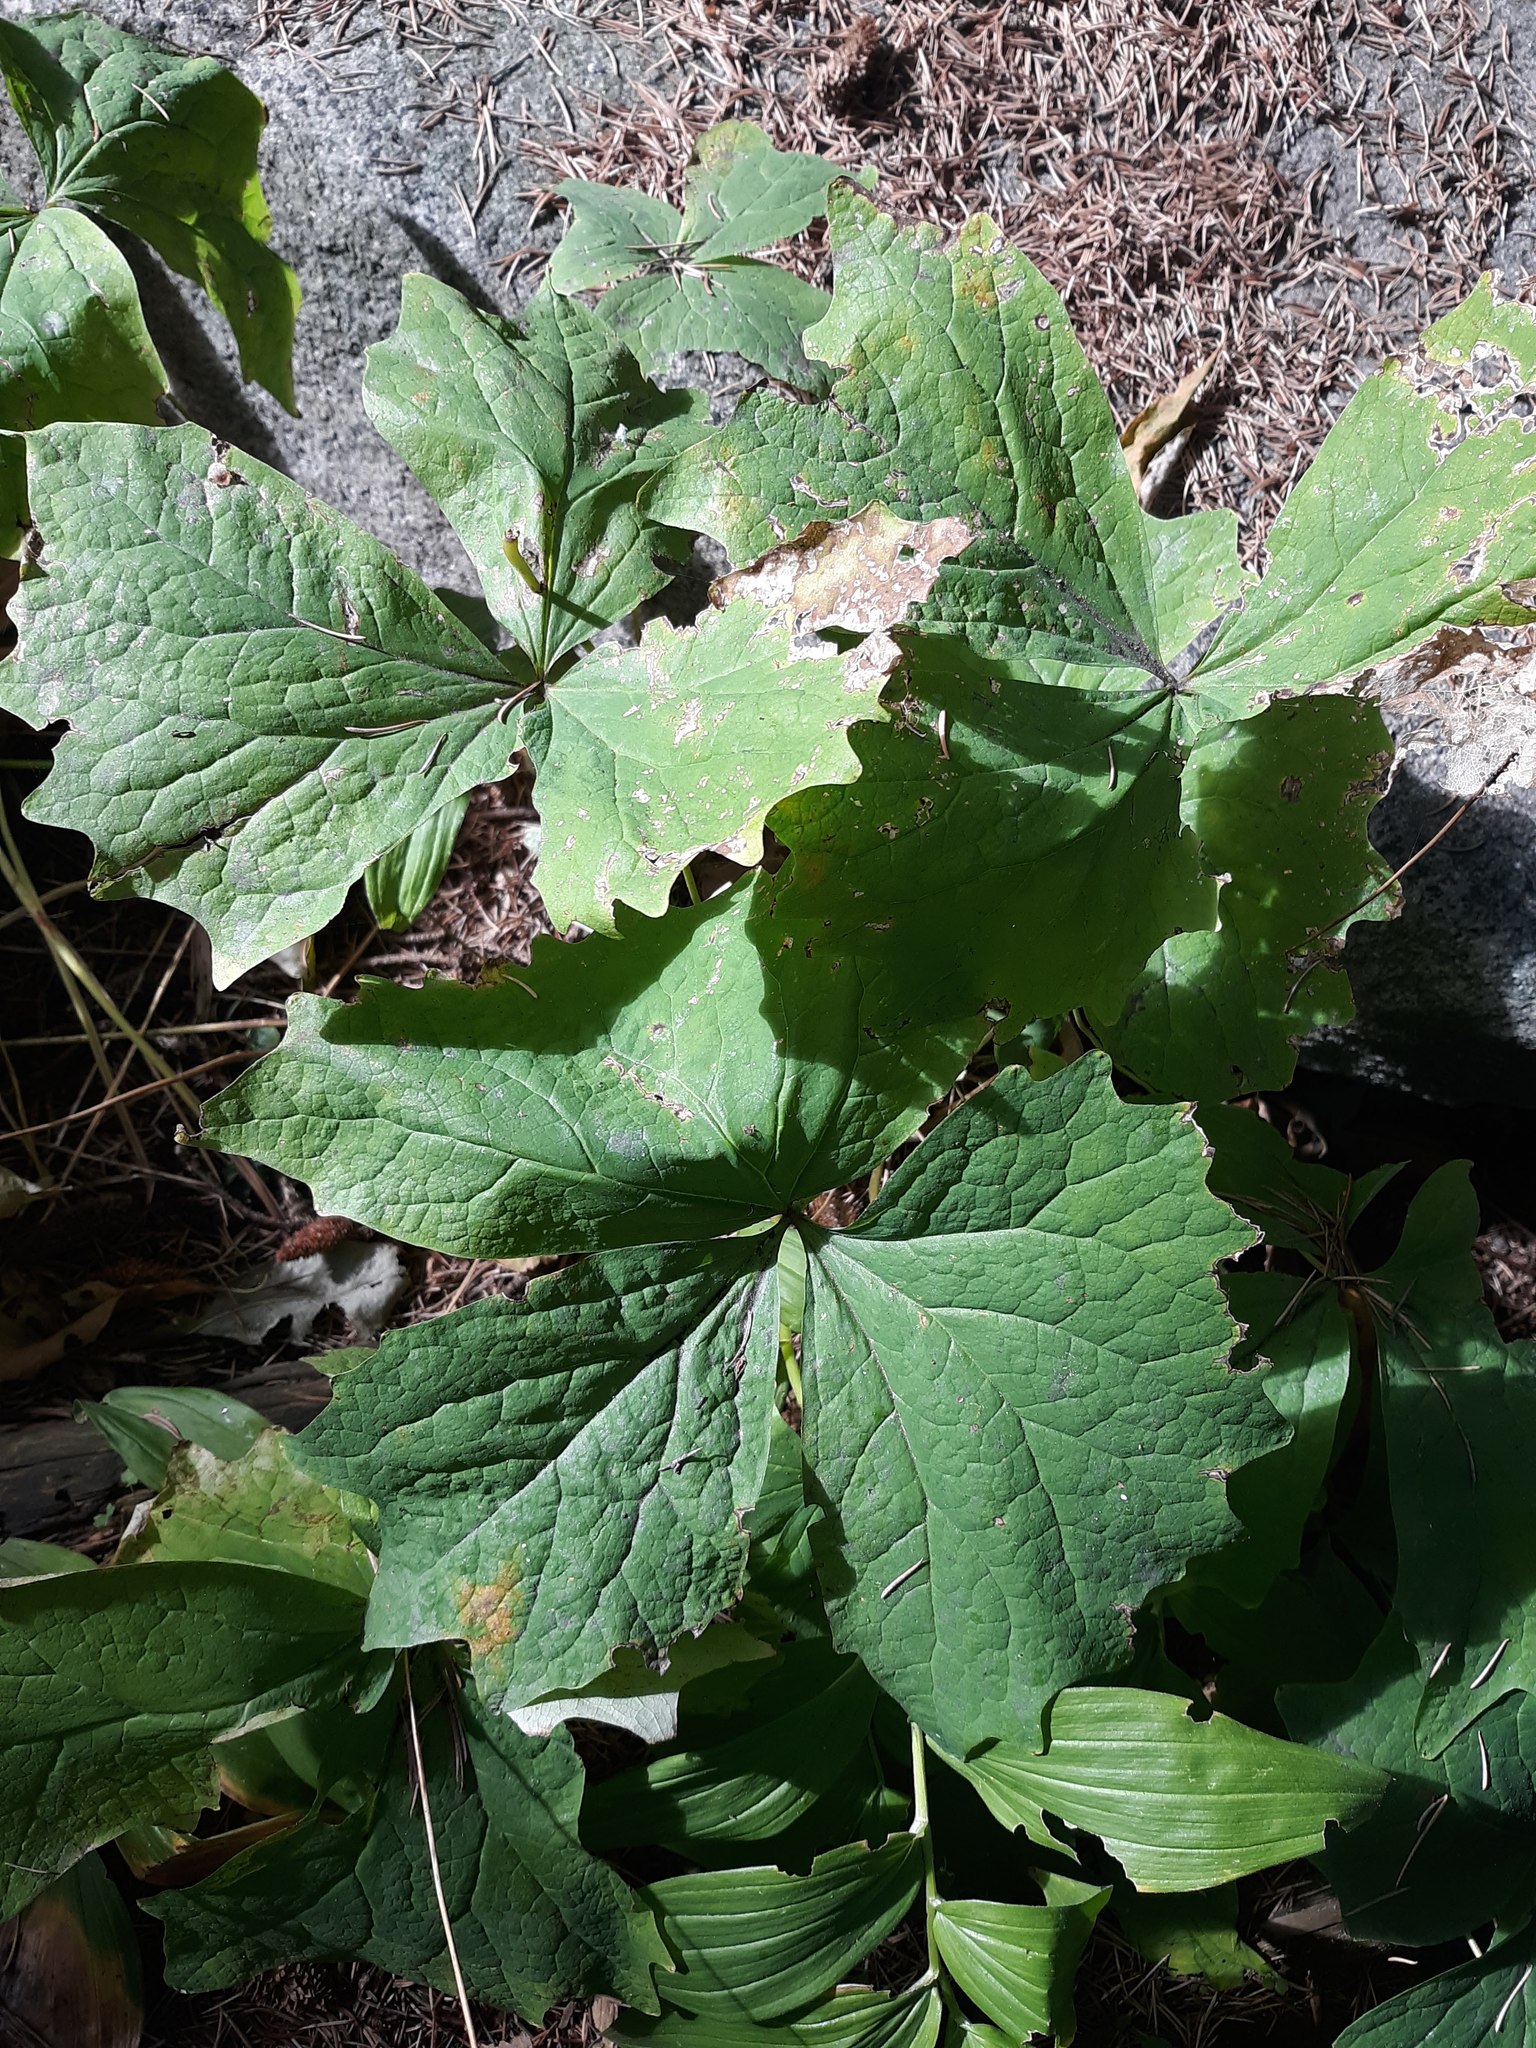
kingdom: Plantae
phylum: Tracheophyta
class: Magnoliopsida
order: Ranunculales
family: Berberidaceae
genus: Achlys
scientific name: Achlys triphylla
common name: Vanilla-leaf
